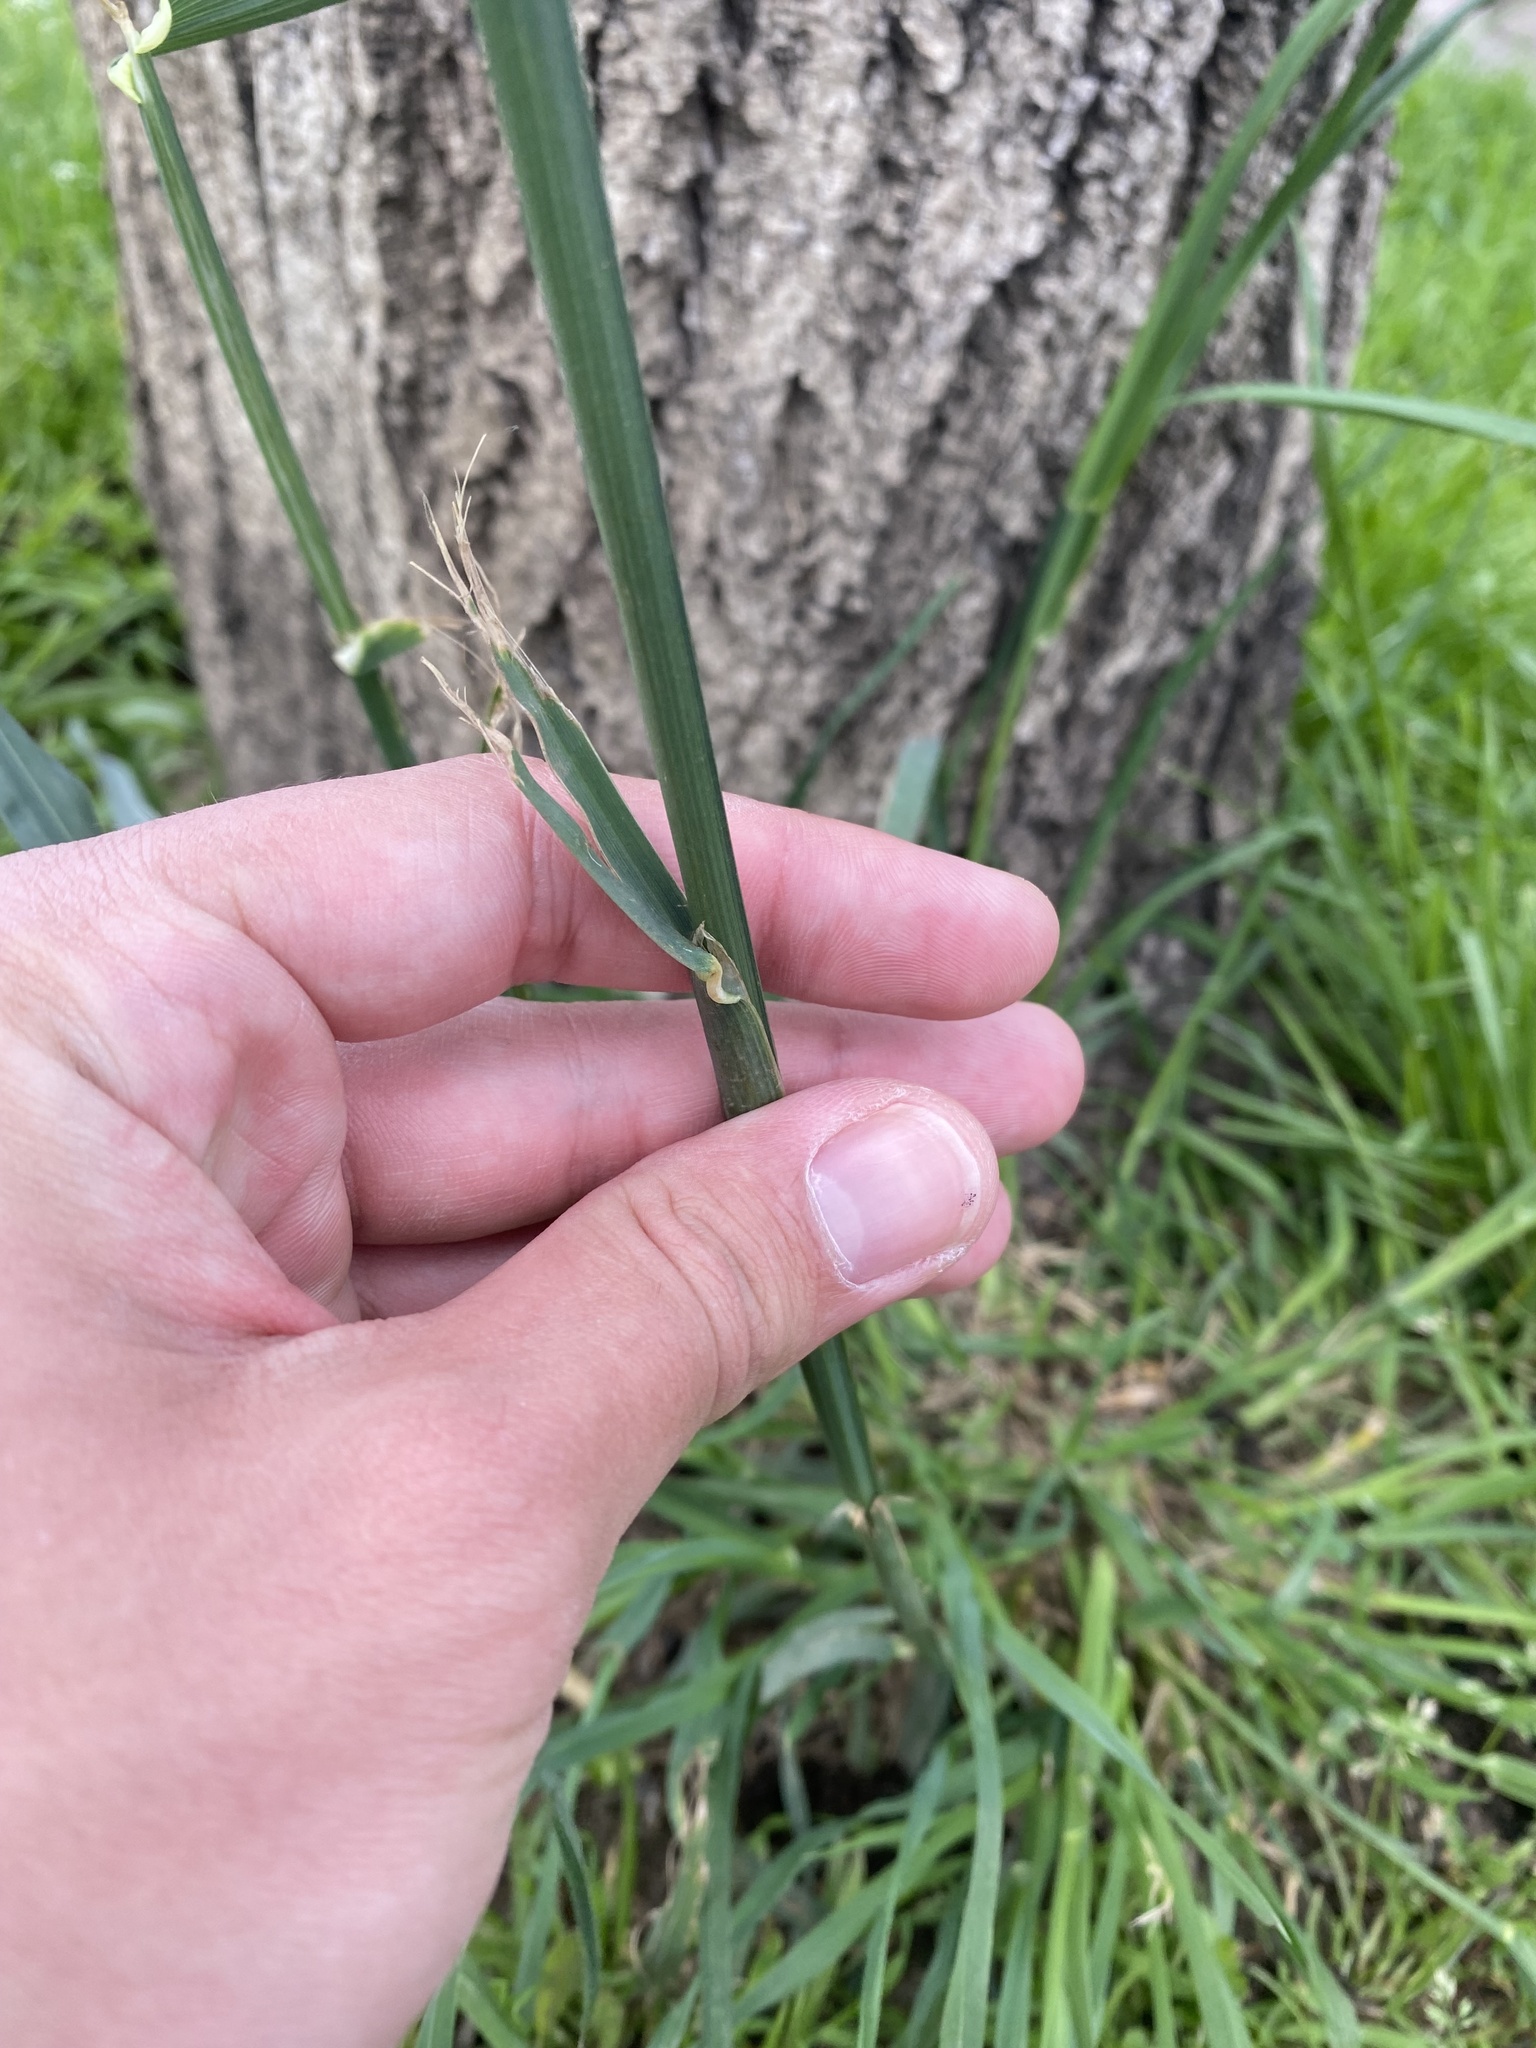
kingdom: Plantae
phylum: Tracheophyta
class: Liliopsida
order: Poales
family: Poaceae
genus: Dactylis
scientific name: Dactylis glomerata
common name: Orchardgrass
